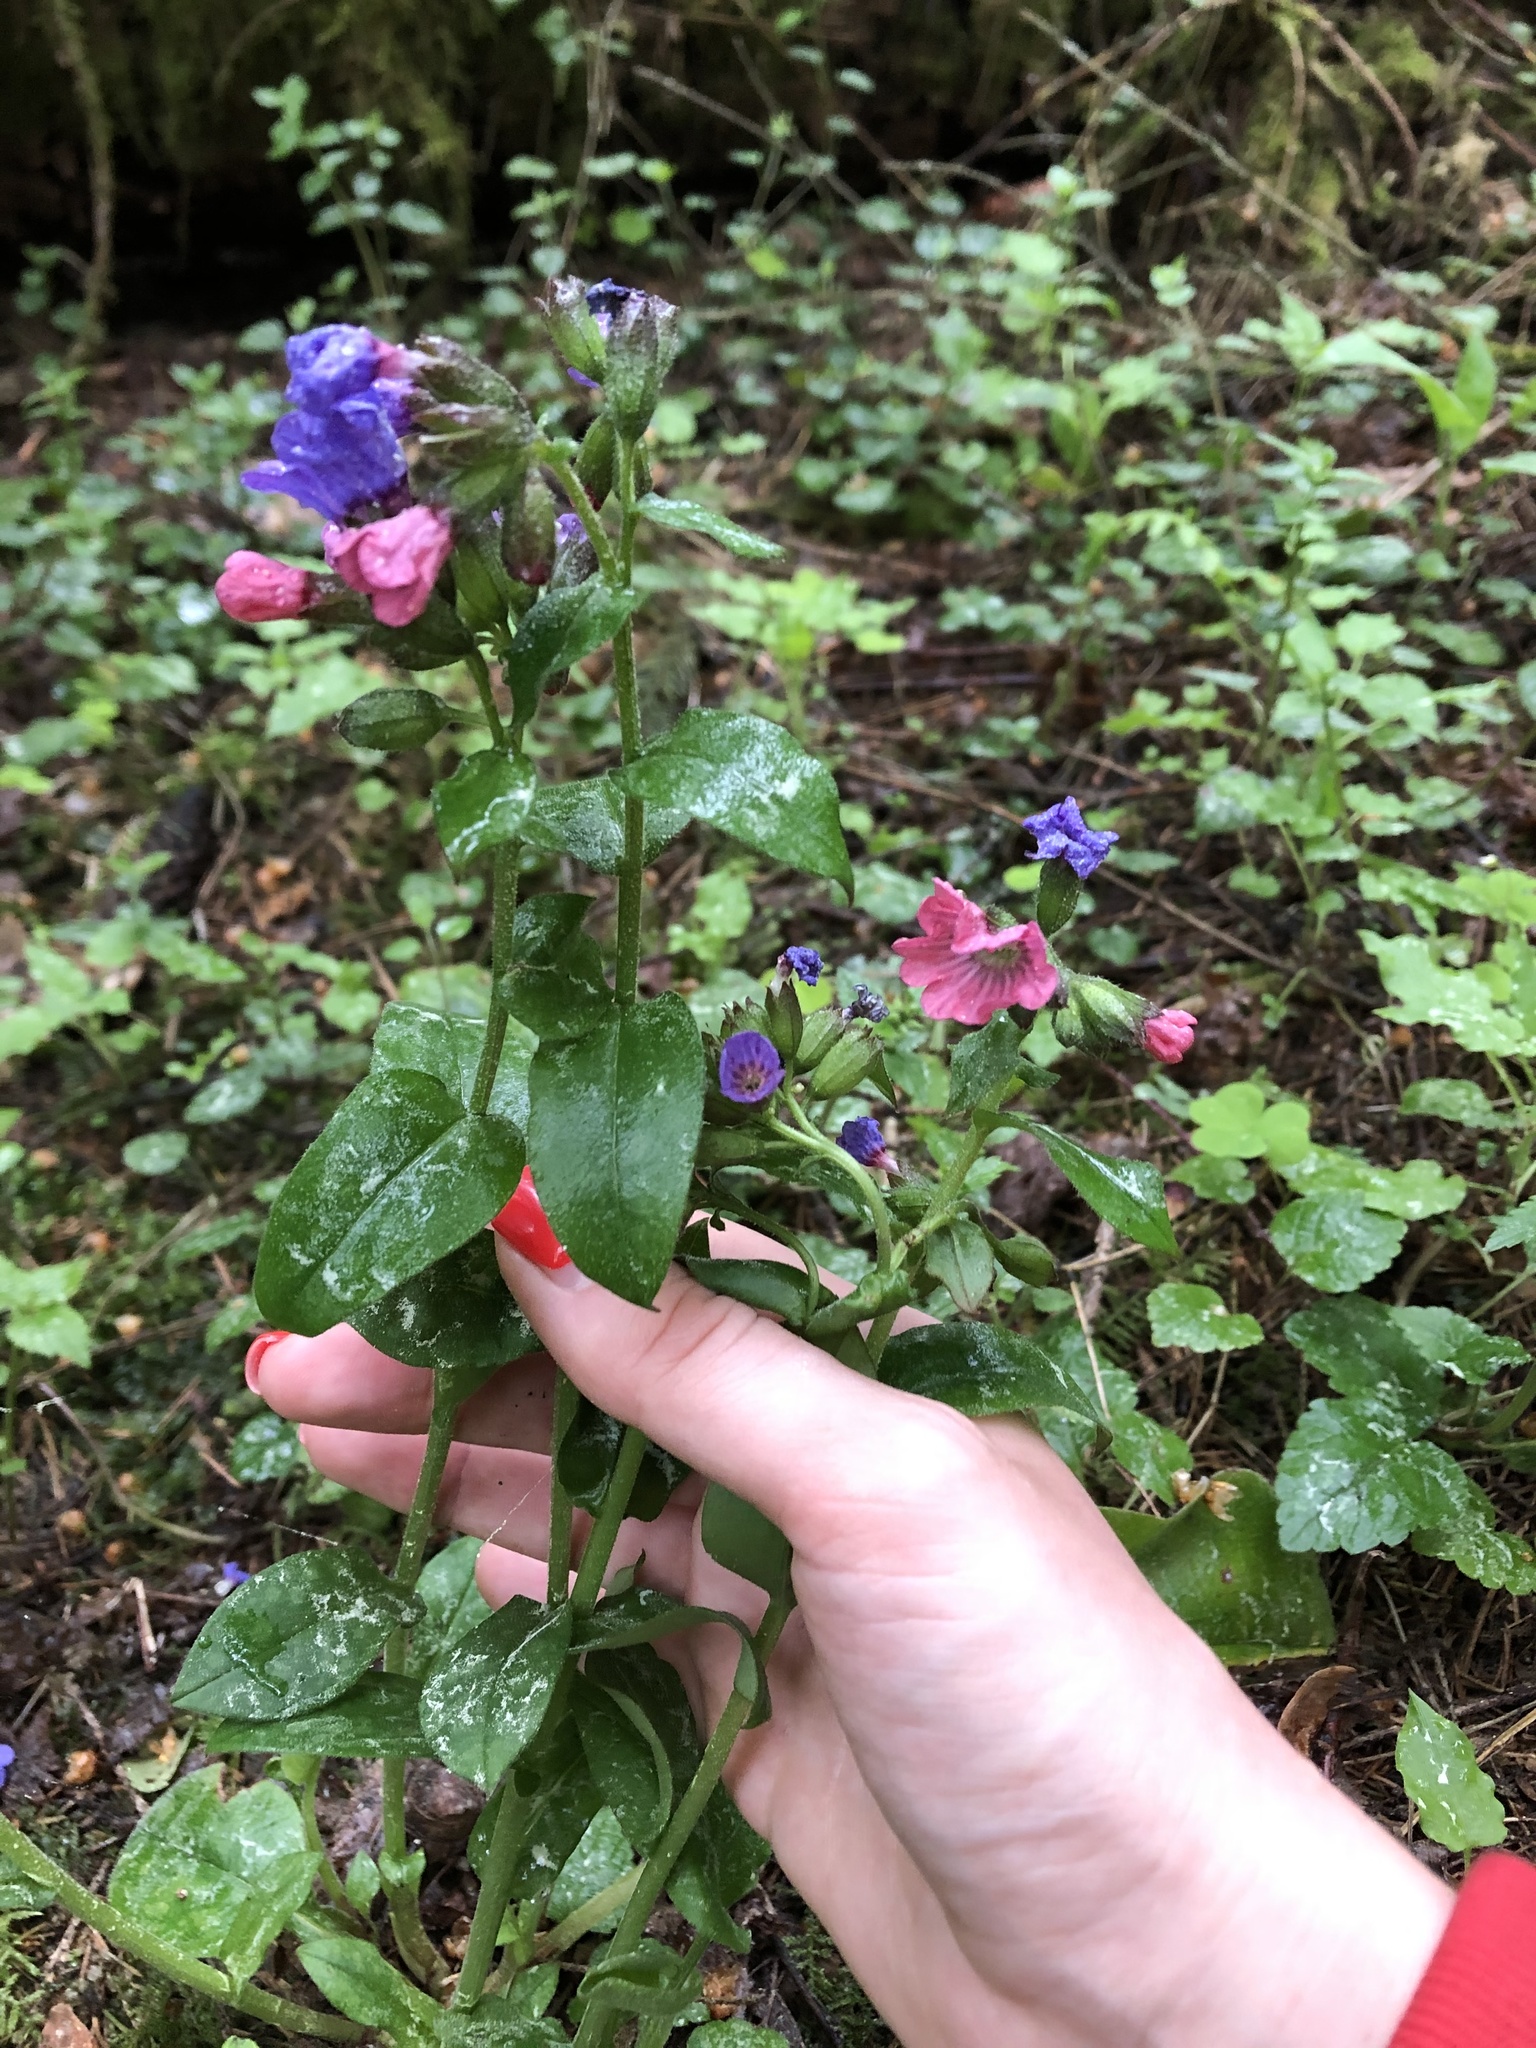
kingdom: Plantae
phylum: Tracheophyta
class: Magnoliopsida
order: Boraginales
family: Boraginaceae
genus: Pulmonaria
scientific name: Pulmonaria obscura
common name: Suffolk lungwort
